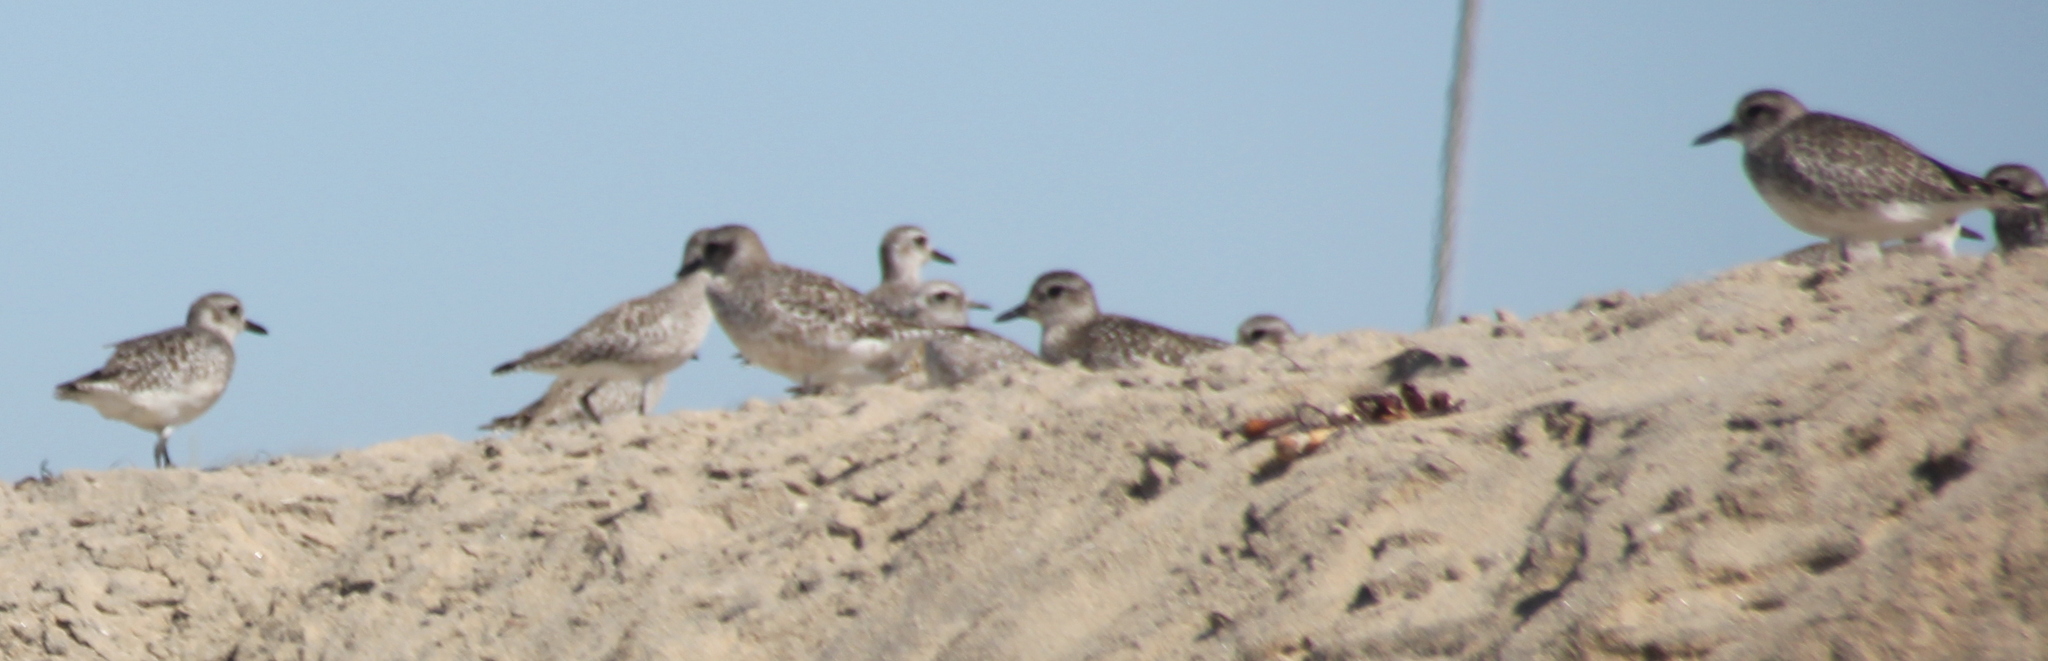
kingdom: Animalia
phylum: Chordata
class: Aves
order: Charadriiformes
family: Charadriidae
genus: Pluvialis
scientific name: Pluvialis squatarola
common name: Grey plover
